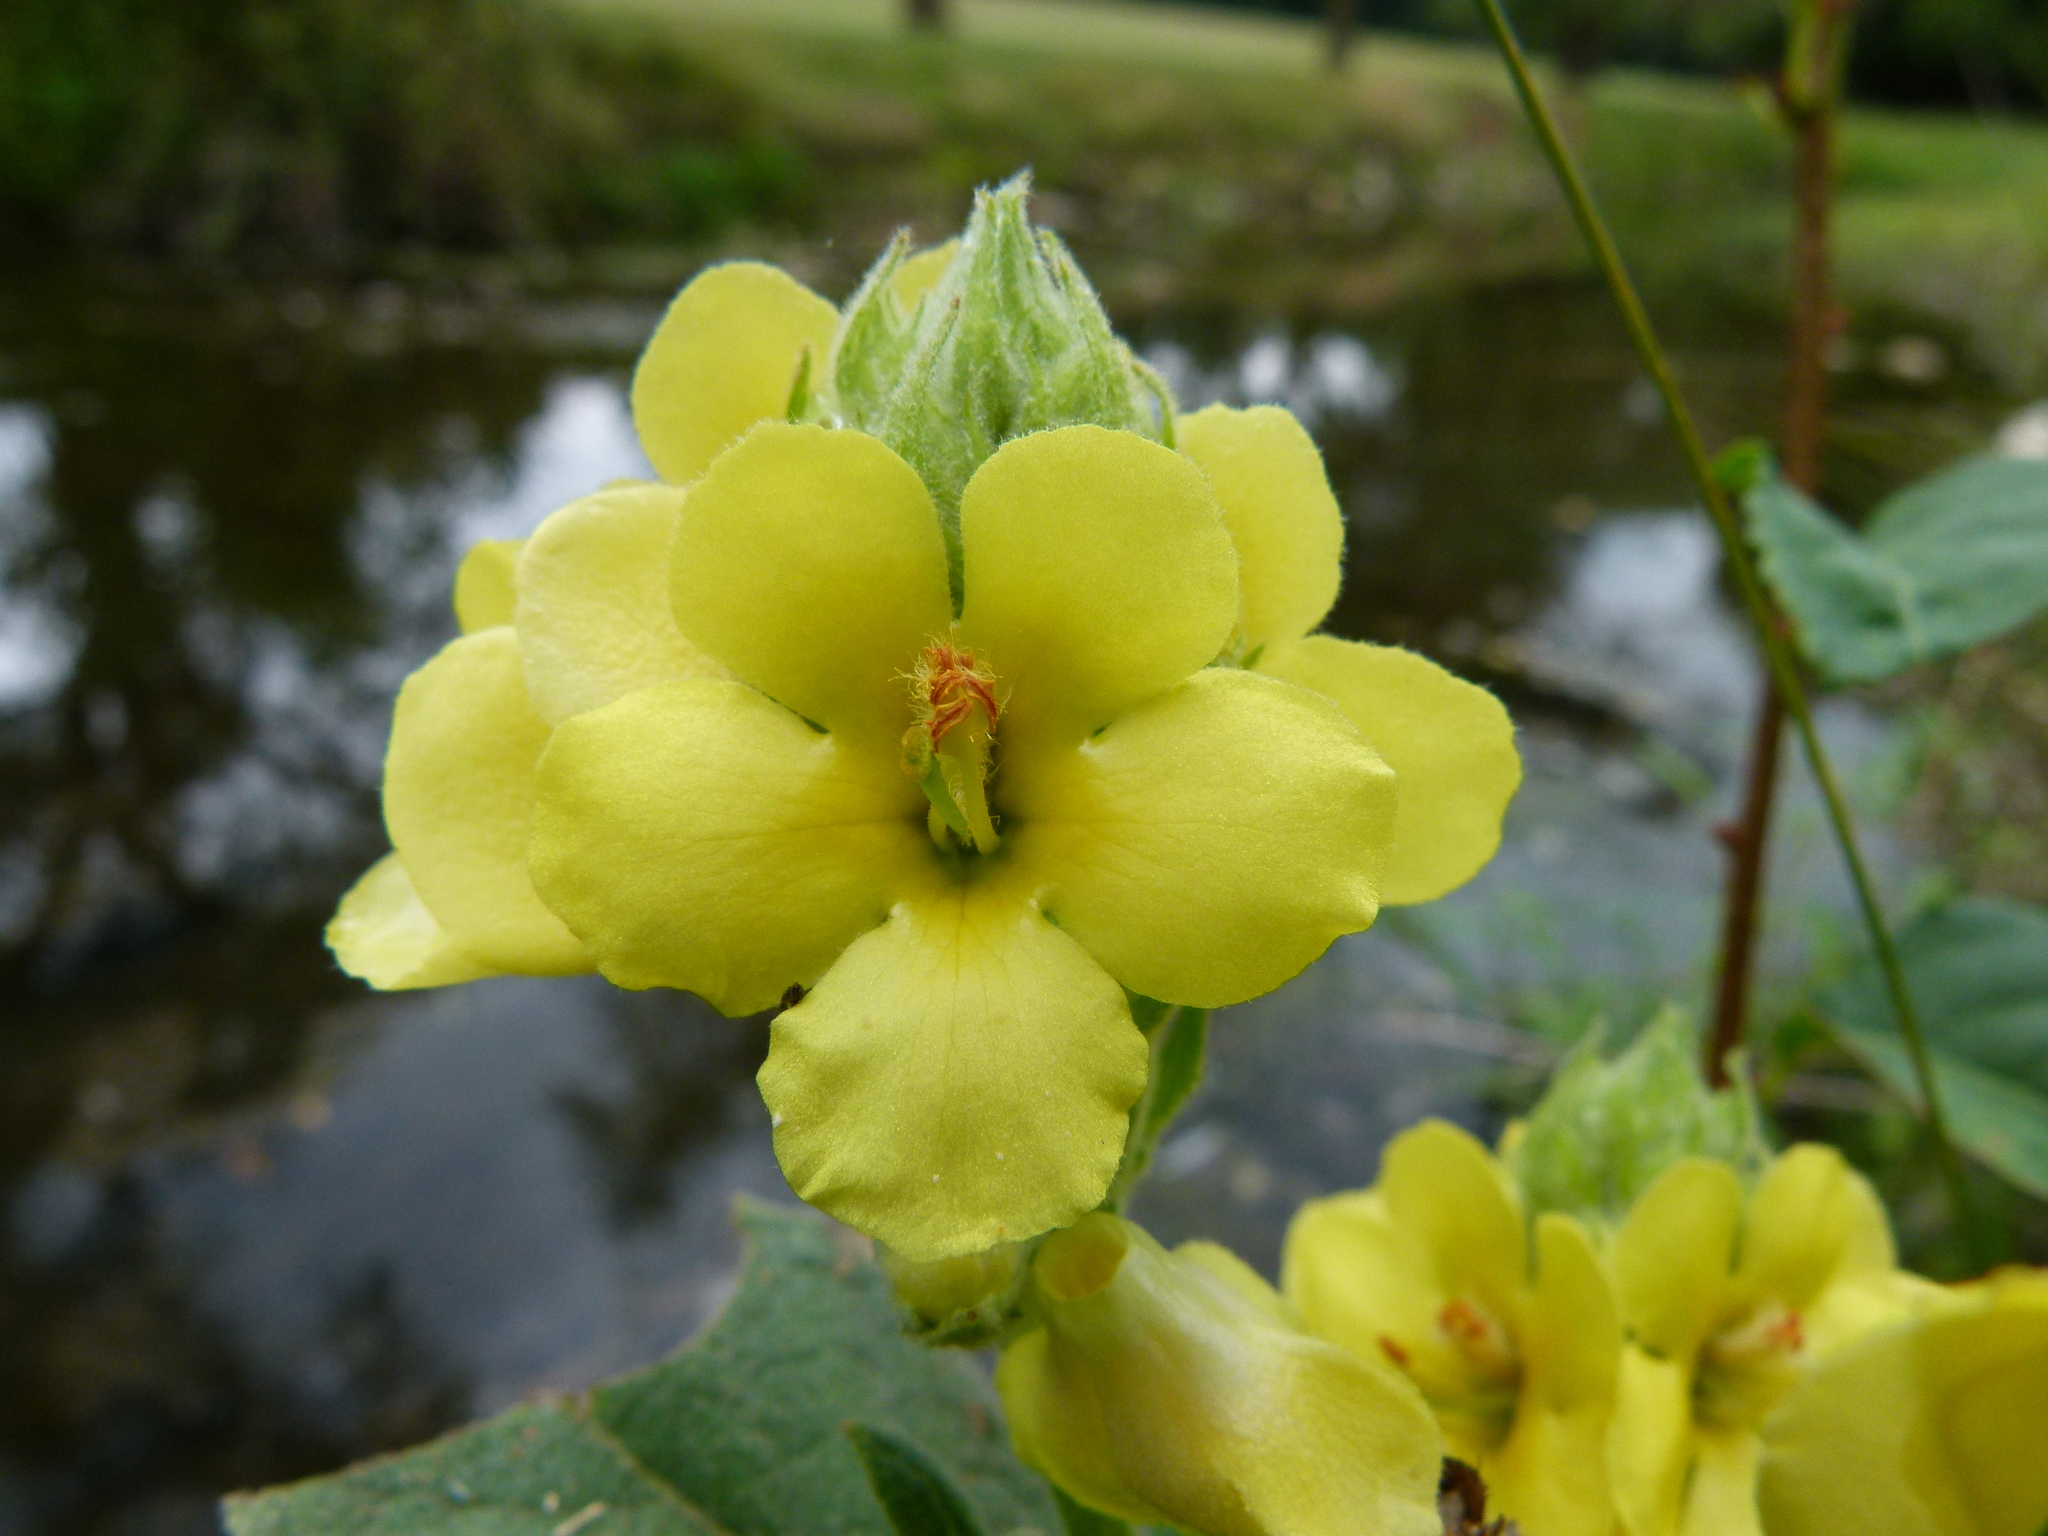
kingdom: Plantae
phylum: Tracheophyta
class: Magnoliopsida
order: Lamiales
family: Scrophulariaceae
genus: Verbascum
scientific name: Verbascum thapsus
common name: Common mullein
